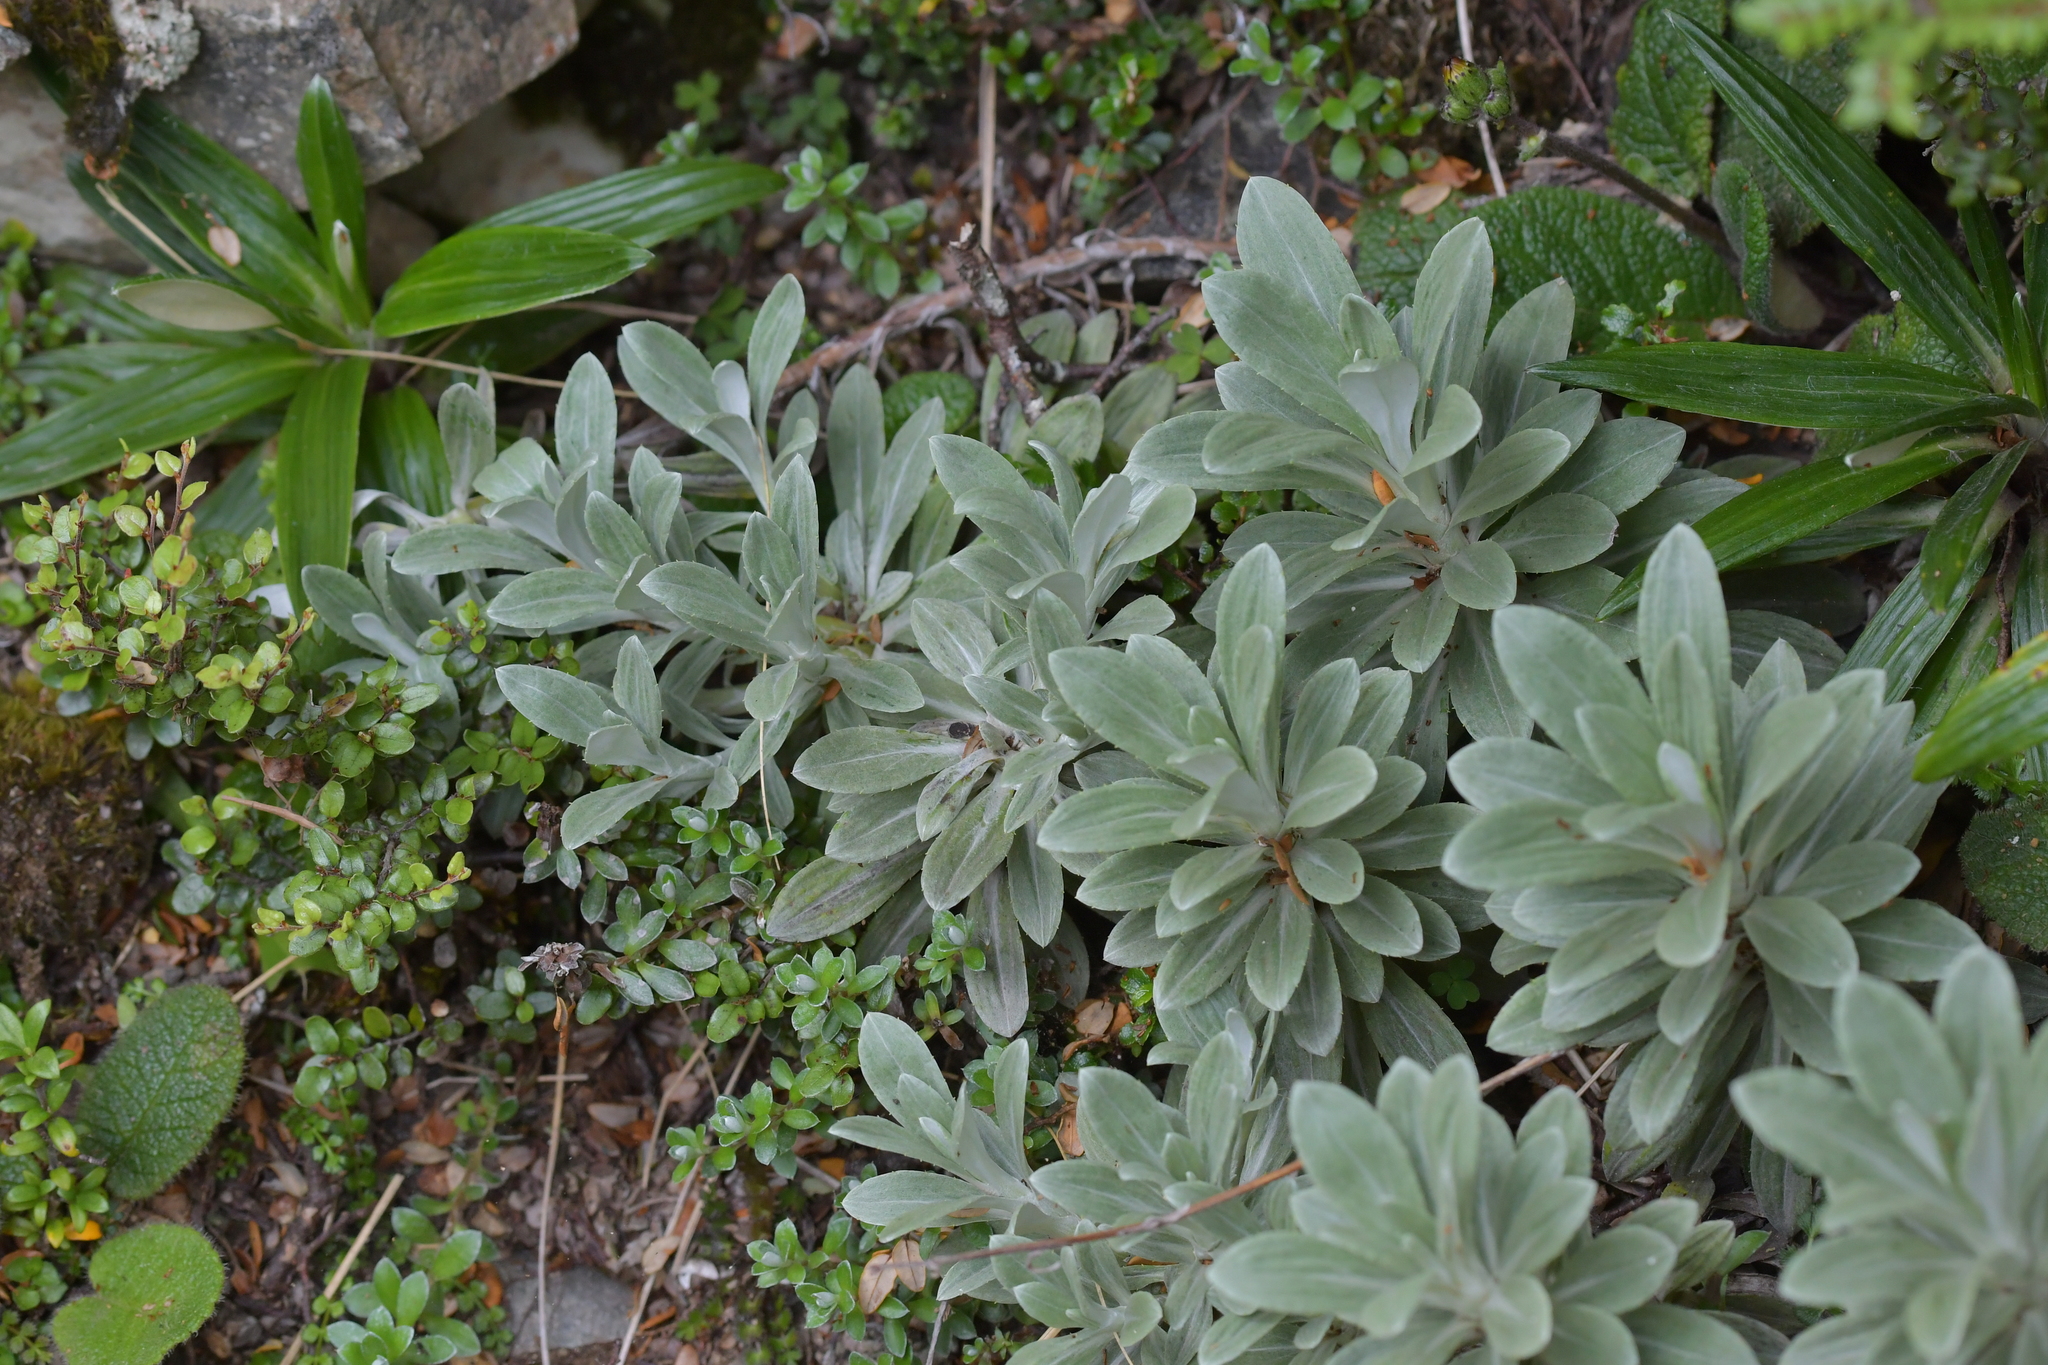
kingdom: Plantae
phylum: Tracheophyta
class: Magnoliopsida
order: Asterales
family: Asteraceae
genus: Celmisia
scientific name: Celmisia incana
